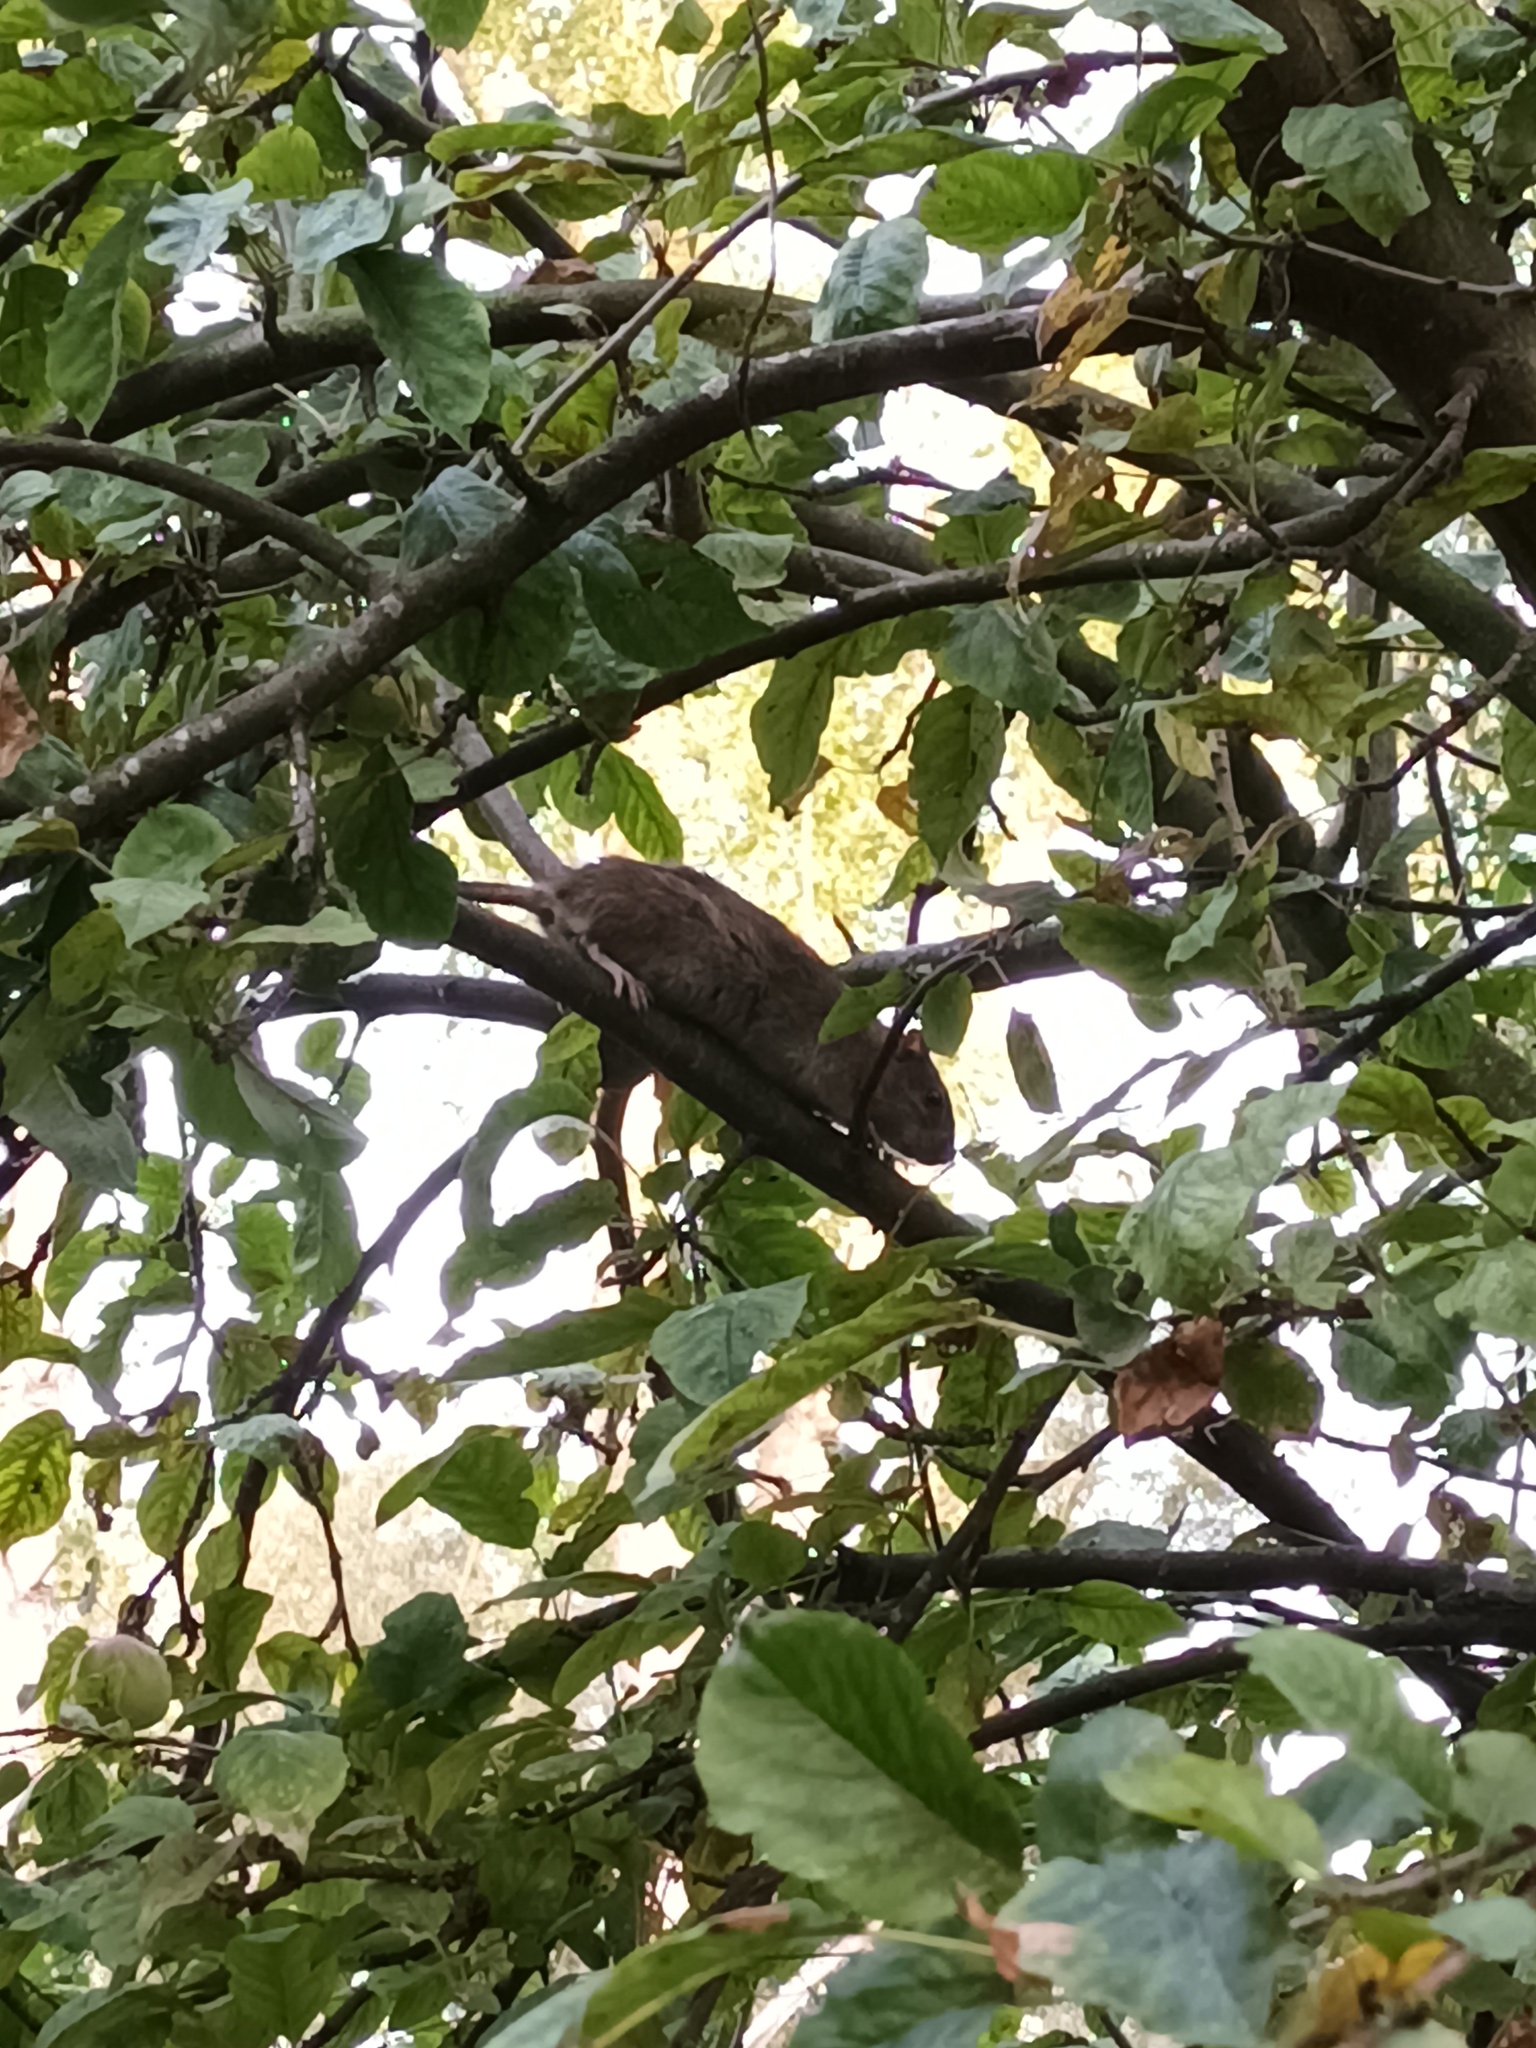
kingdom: Animalia
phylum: Chordata
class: Mammalia
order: Rodentia
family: Muridae
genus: Rattus
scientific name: Rattus norvegicus
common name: Brown rat
